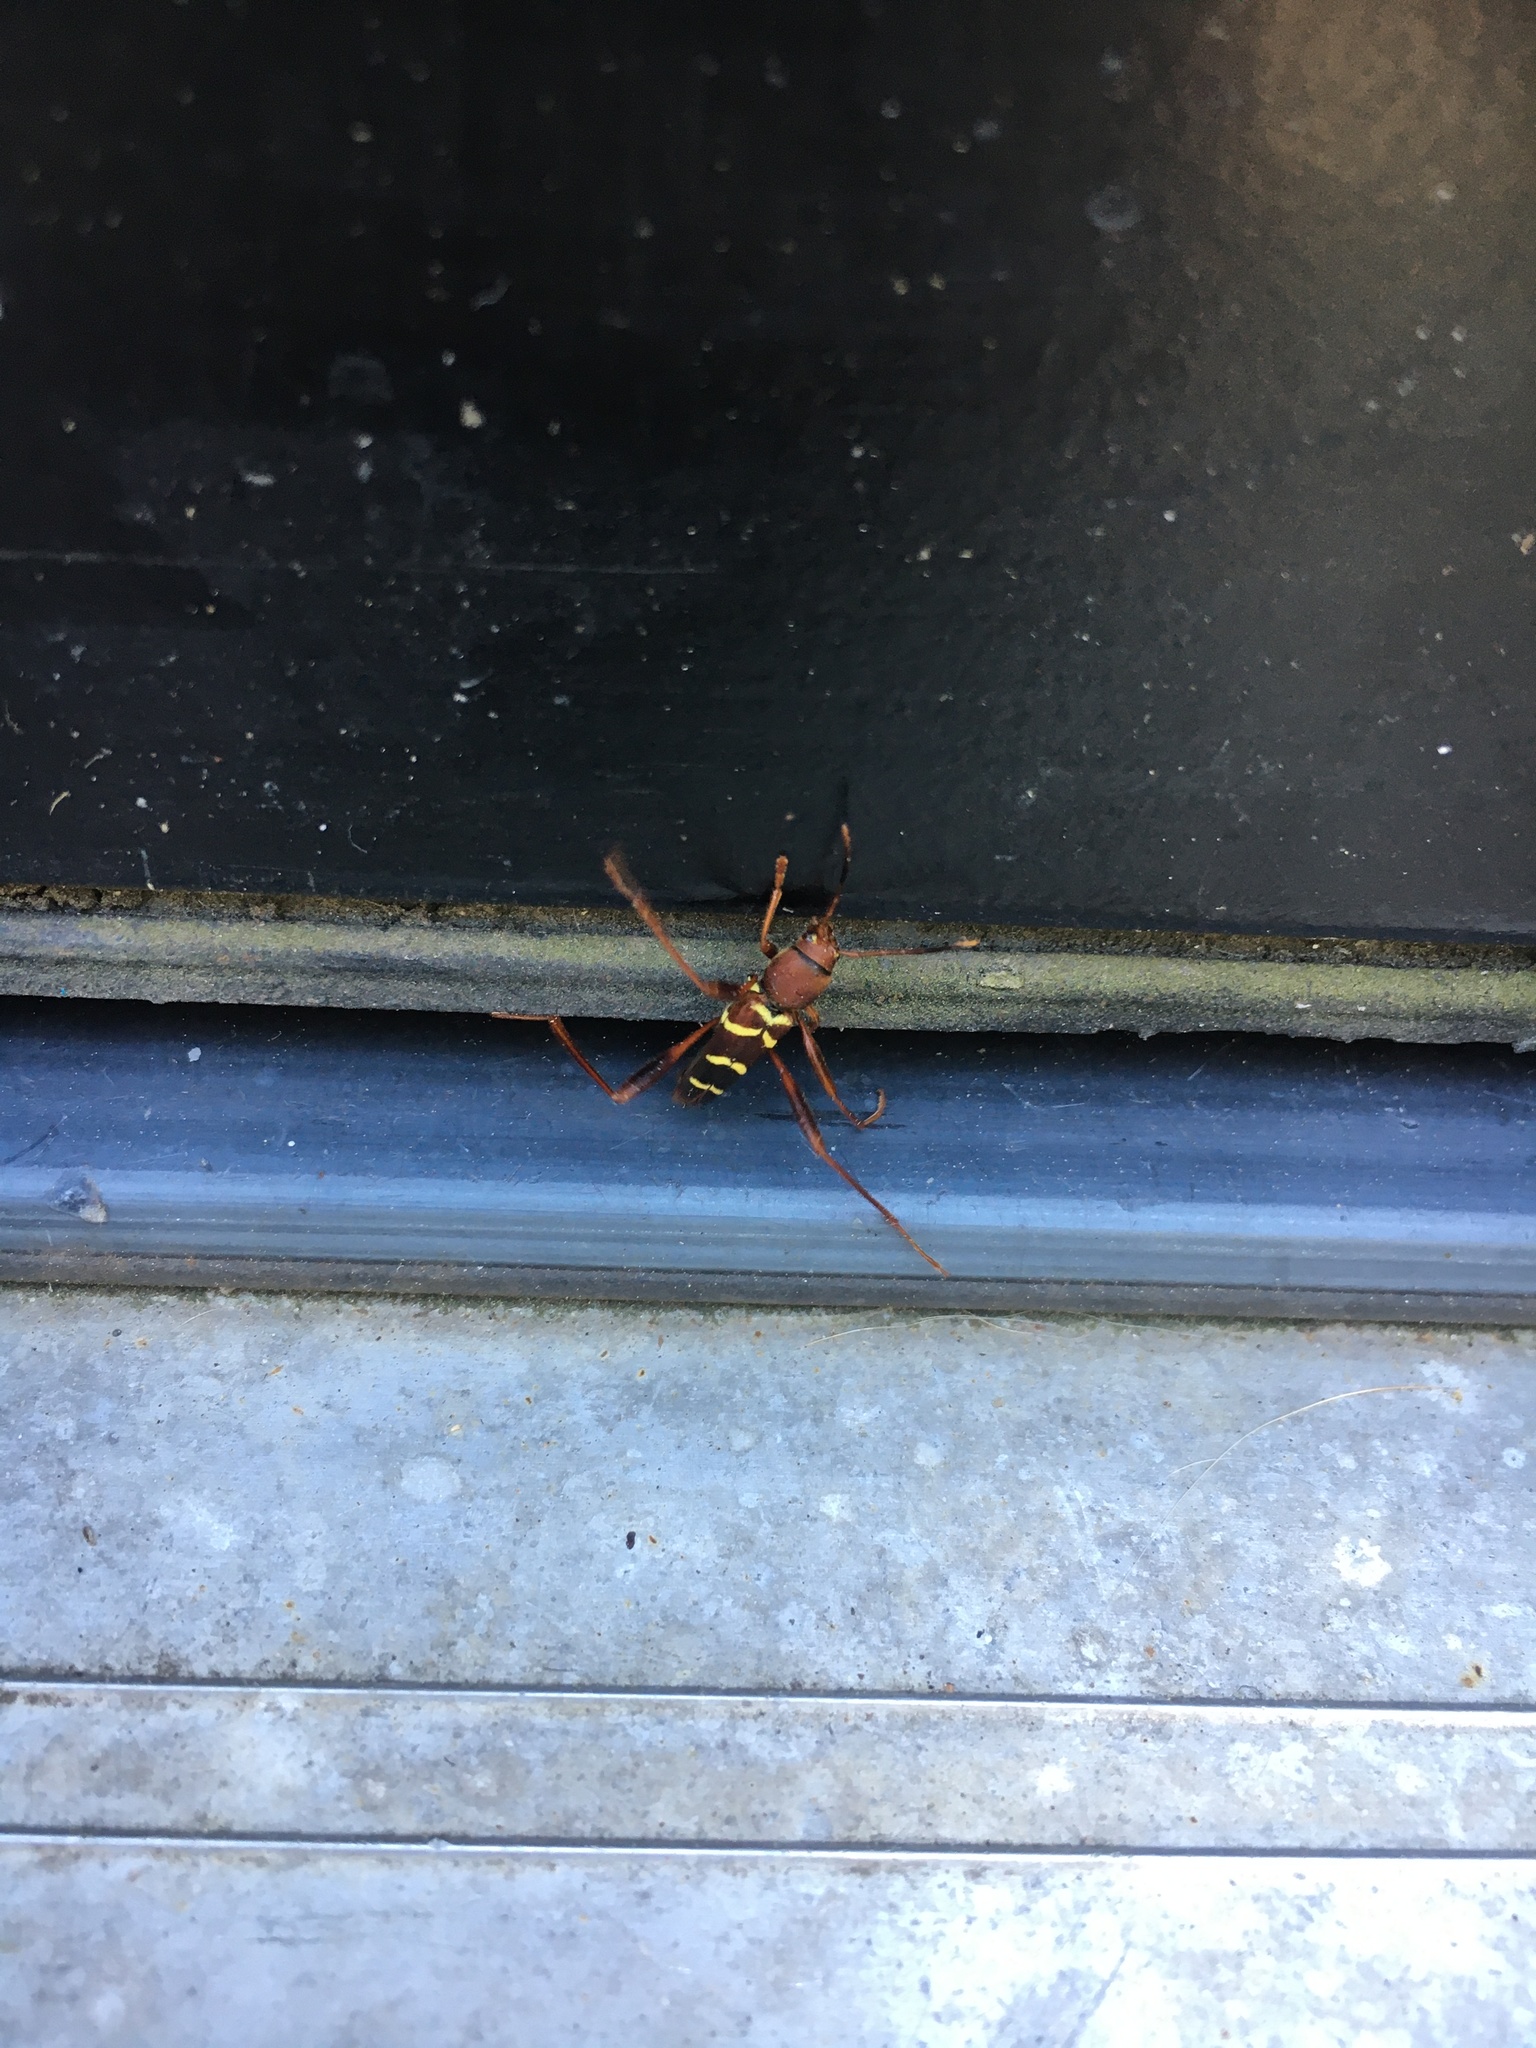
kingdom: Animalia
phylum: Arthropoda
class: Insecta
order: Coleoptera
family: Cerambycidae
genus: Neoclytus
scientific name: Neoclytus acuminatus
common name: Read-headed ash borer
